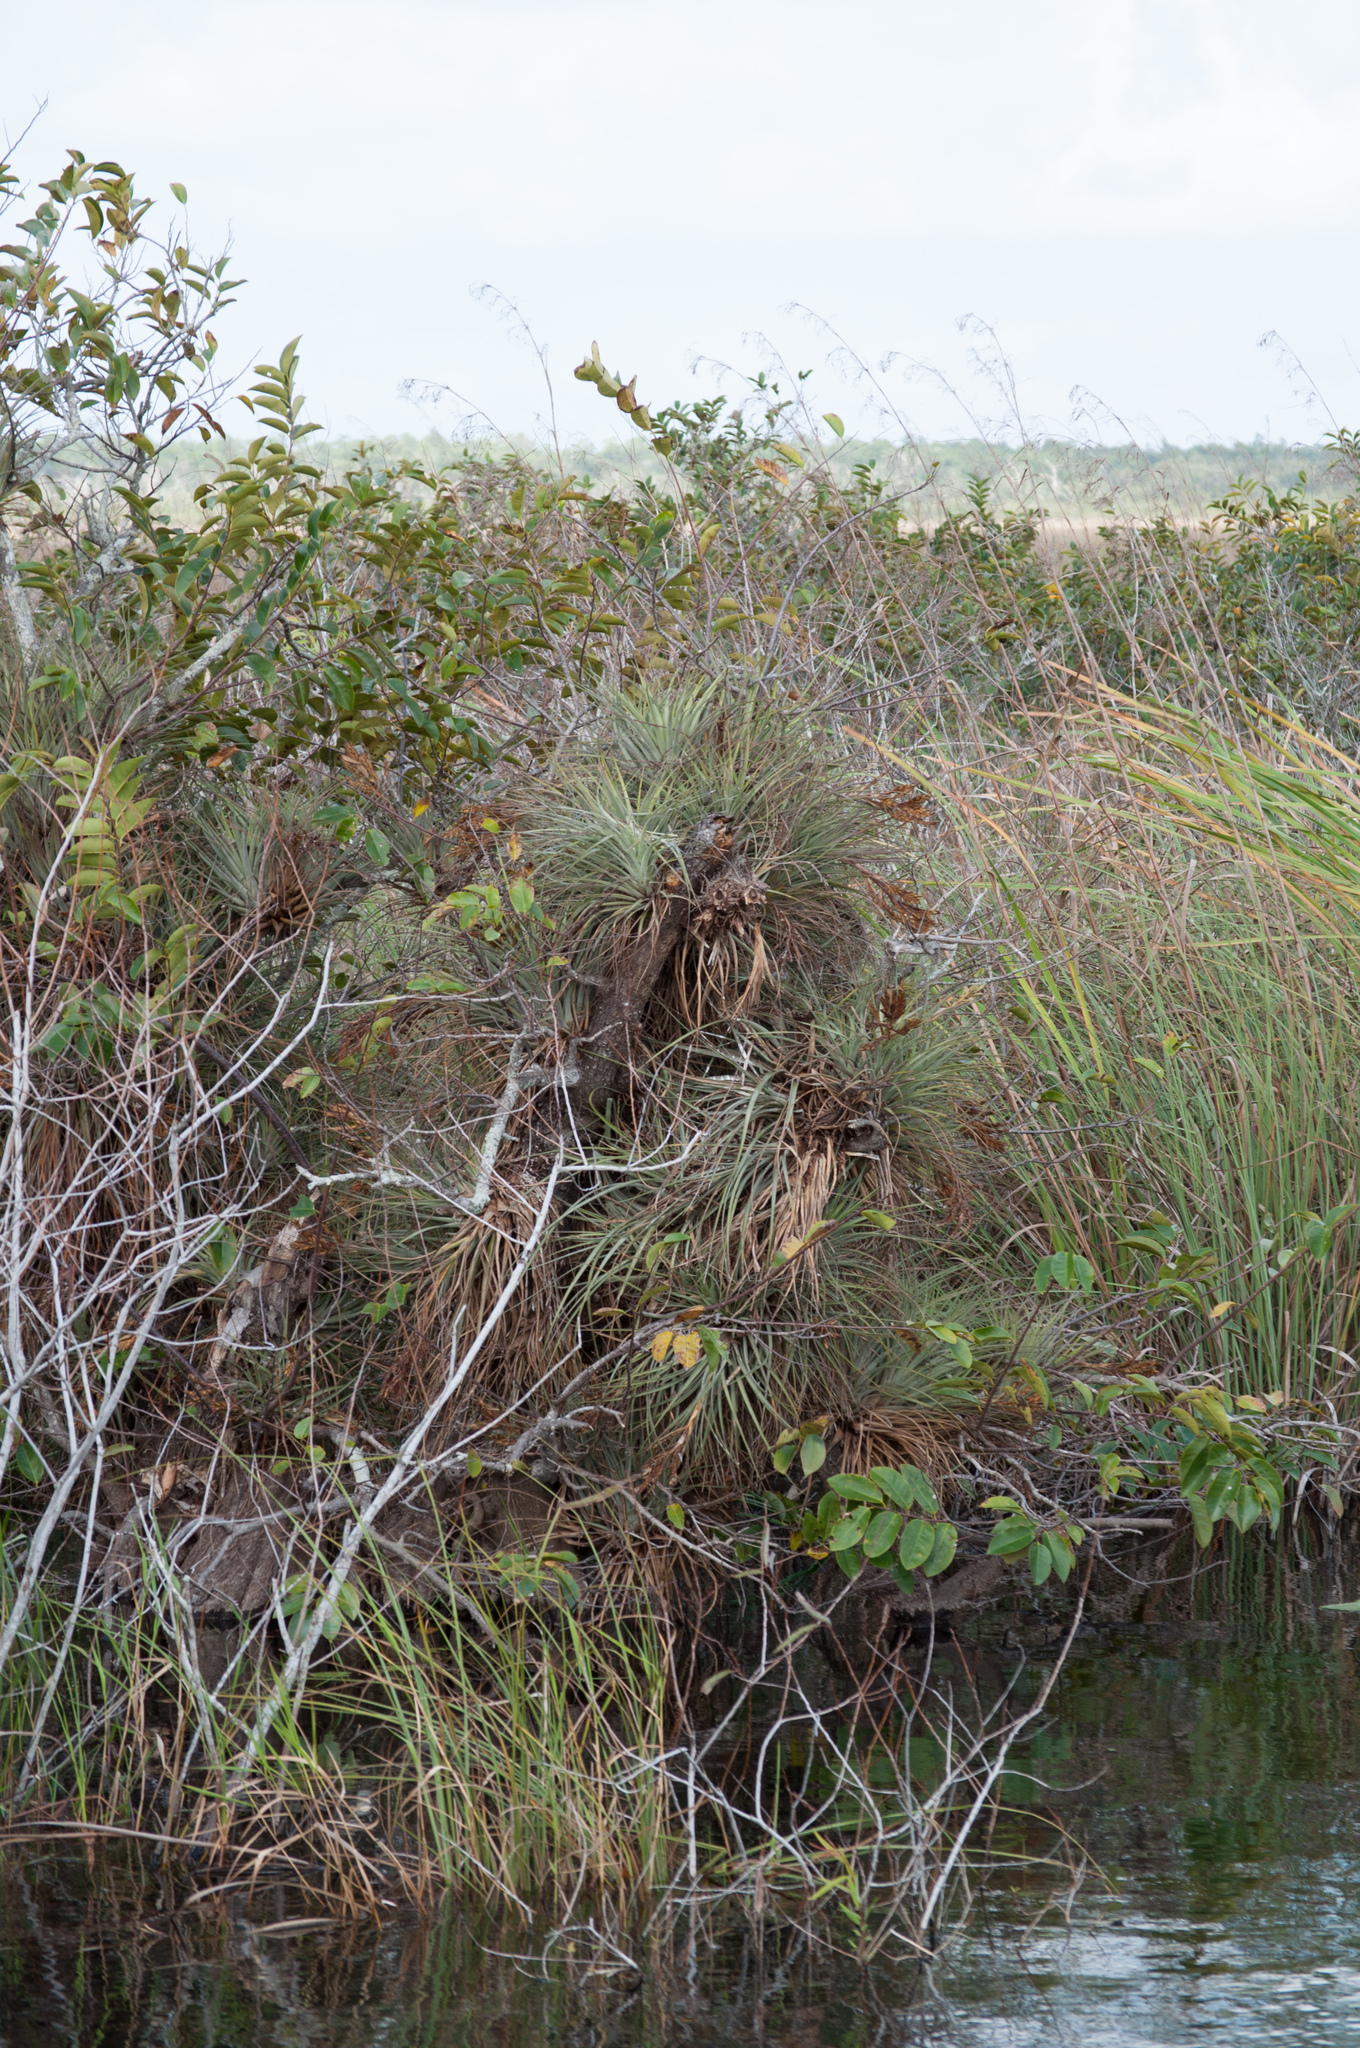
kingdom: Plantae
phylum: Tracheophyta
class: Liliopsida
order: Poales
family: Bromeliaceae
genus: Tillandsia
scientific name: Tillandsia fasciculata
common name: Giant airplant
